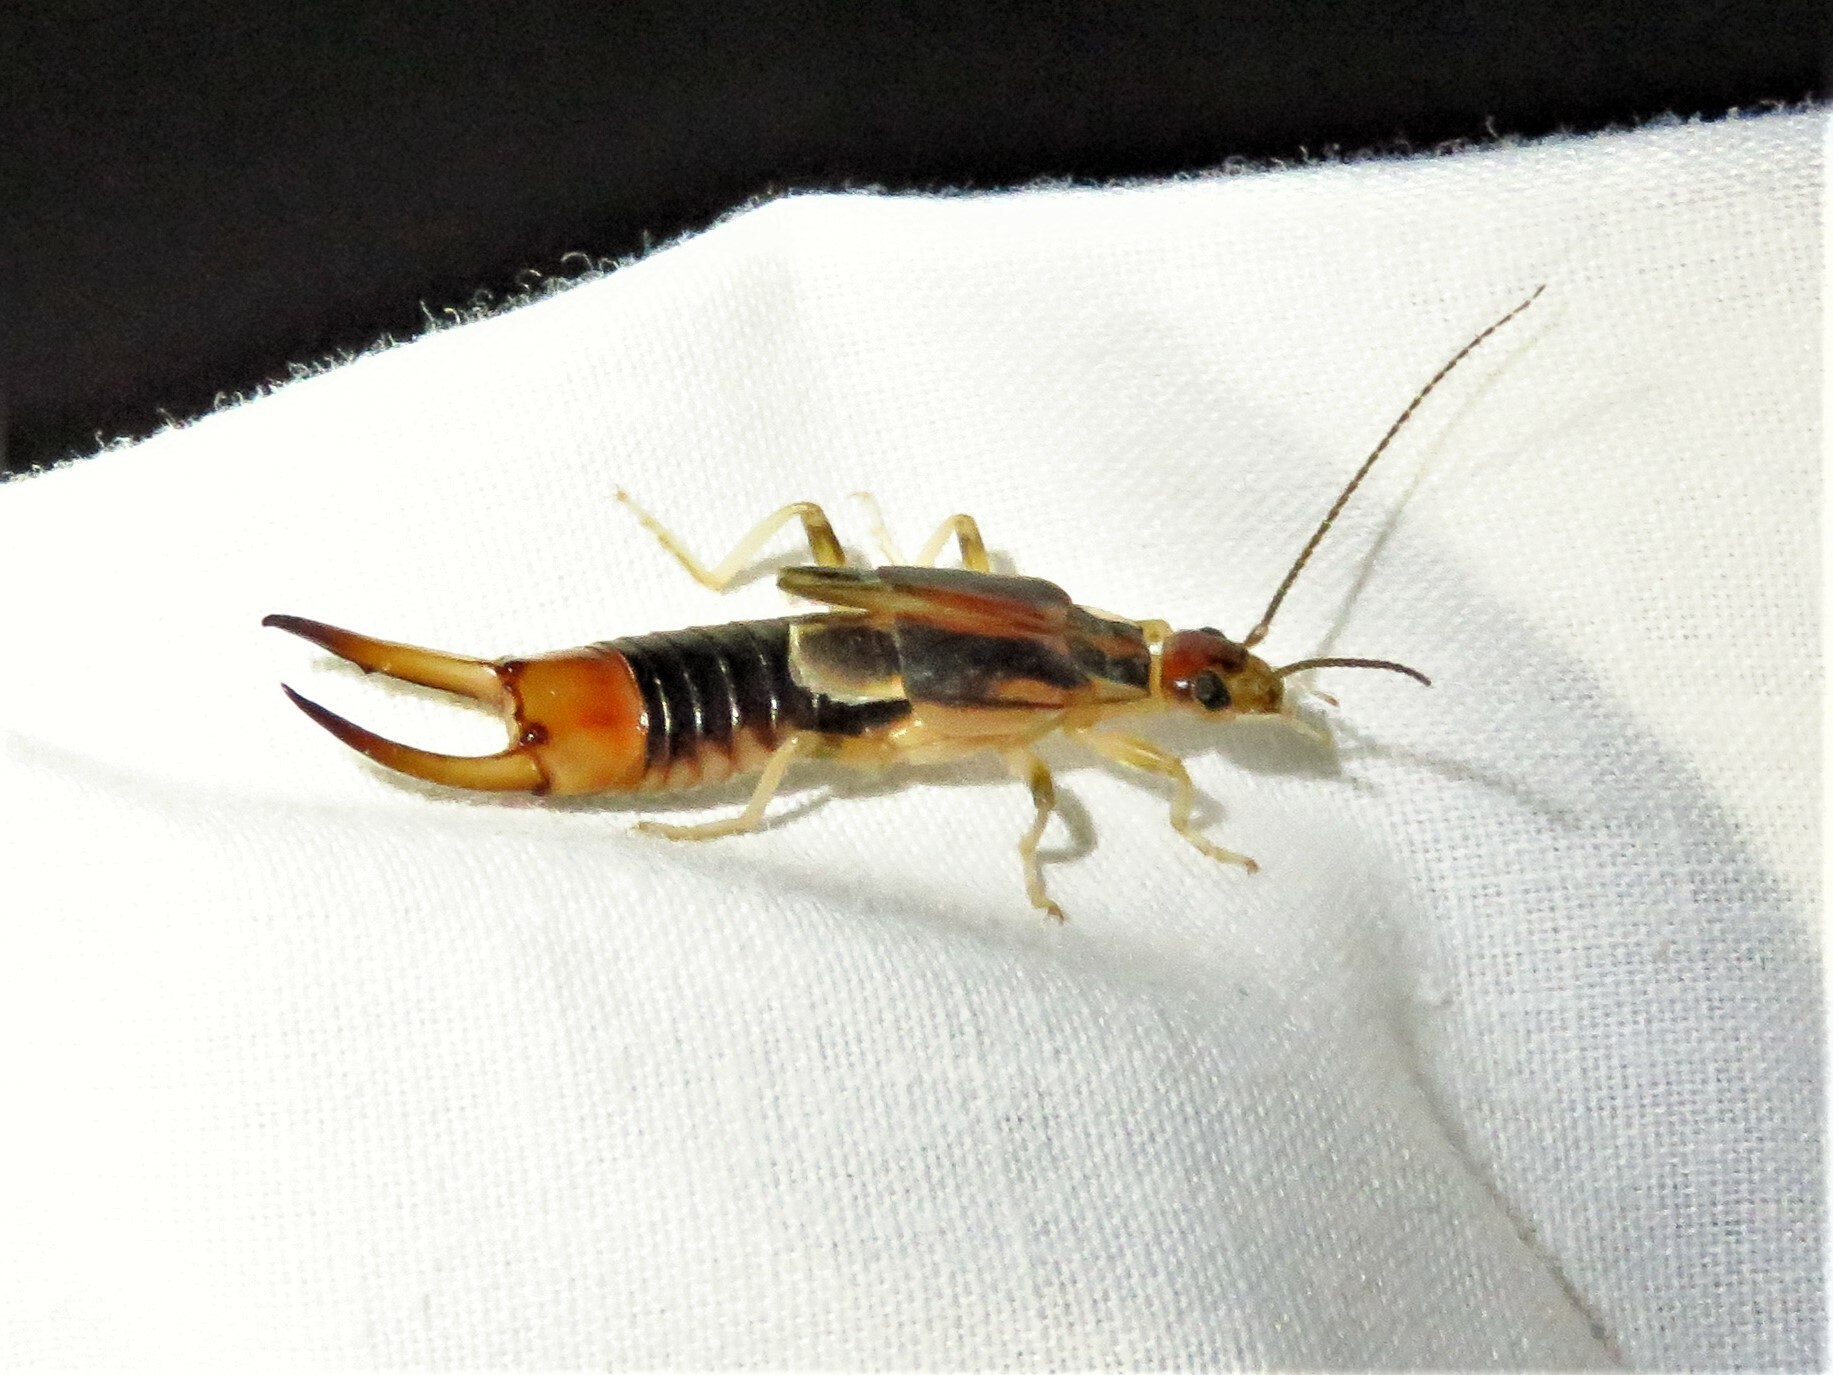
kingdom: Animalia
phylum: Arthropoda
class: Insecta
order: Dermaptera
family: Labiduridae
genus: Labidura
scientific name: Labidura riparia
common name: Striped earwig
